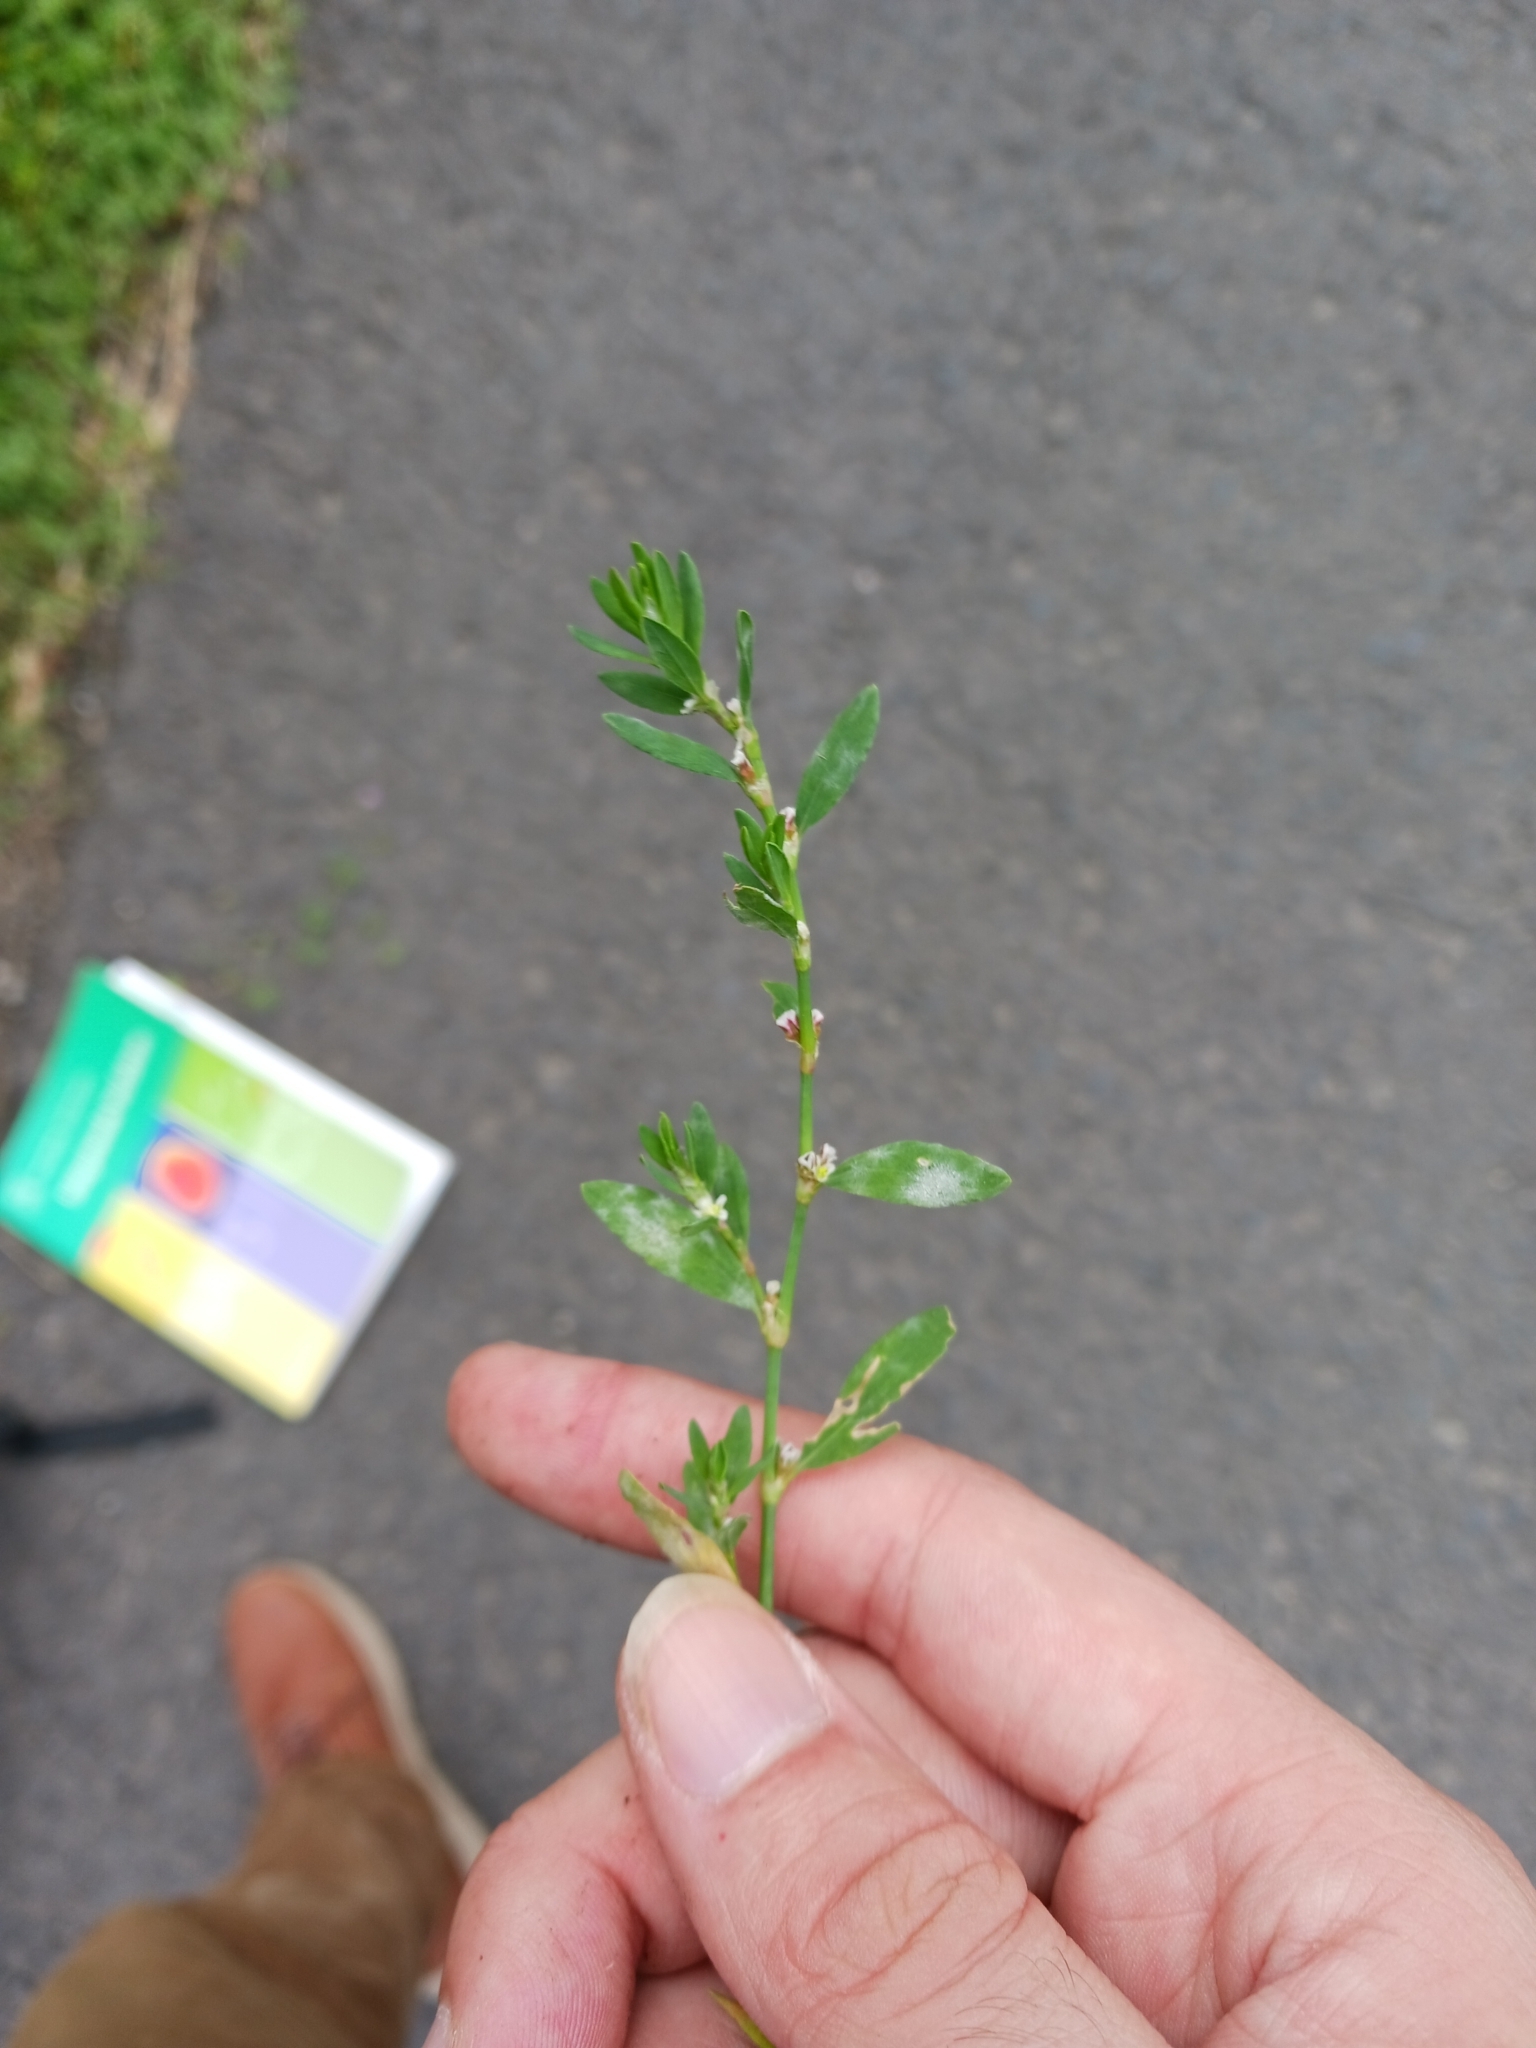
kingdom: Fungi
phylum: Ascomycota
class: Leotiomycetes
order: Helotiales
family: Erysiphaceae
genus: Erysiphe
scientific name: Erysiphe polygoni
